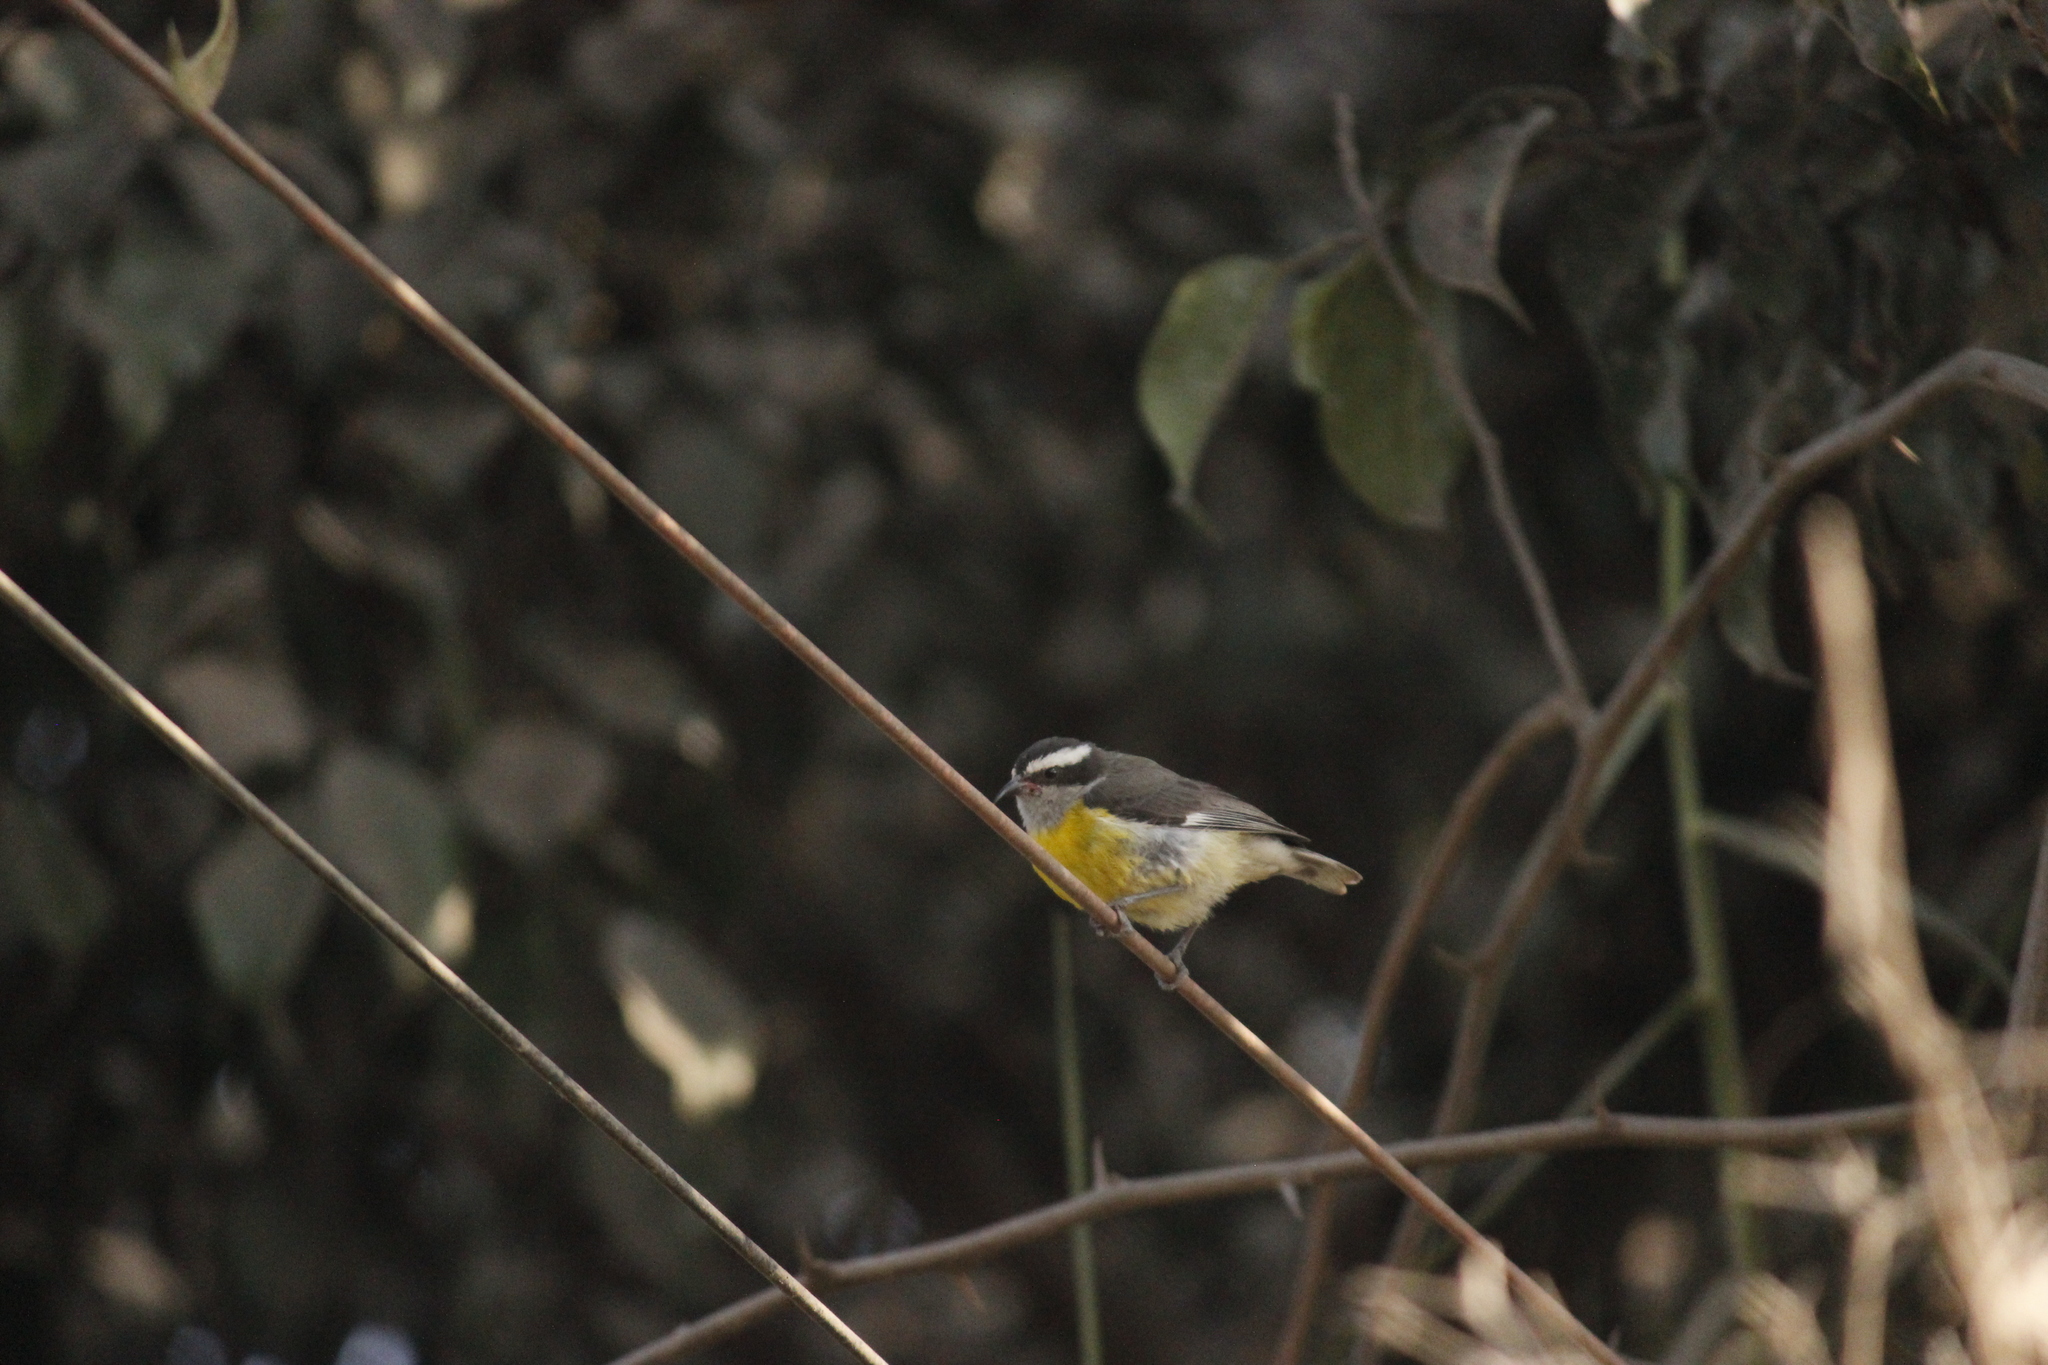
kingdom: Animalia
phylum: Chordata
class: Aves
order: Passeriformes
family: Thraupidae
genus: Coereba
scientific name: Coereba flaveola
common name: Bananaquit
